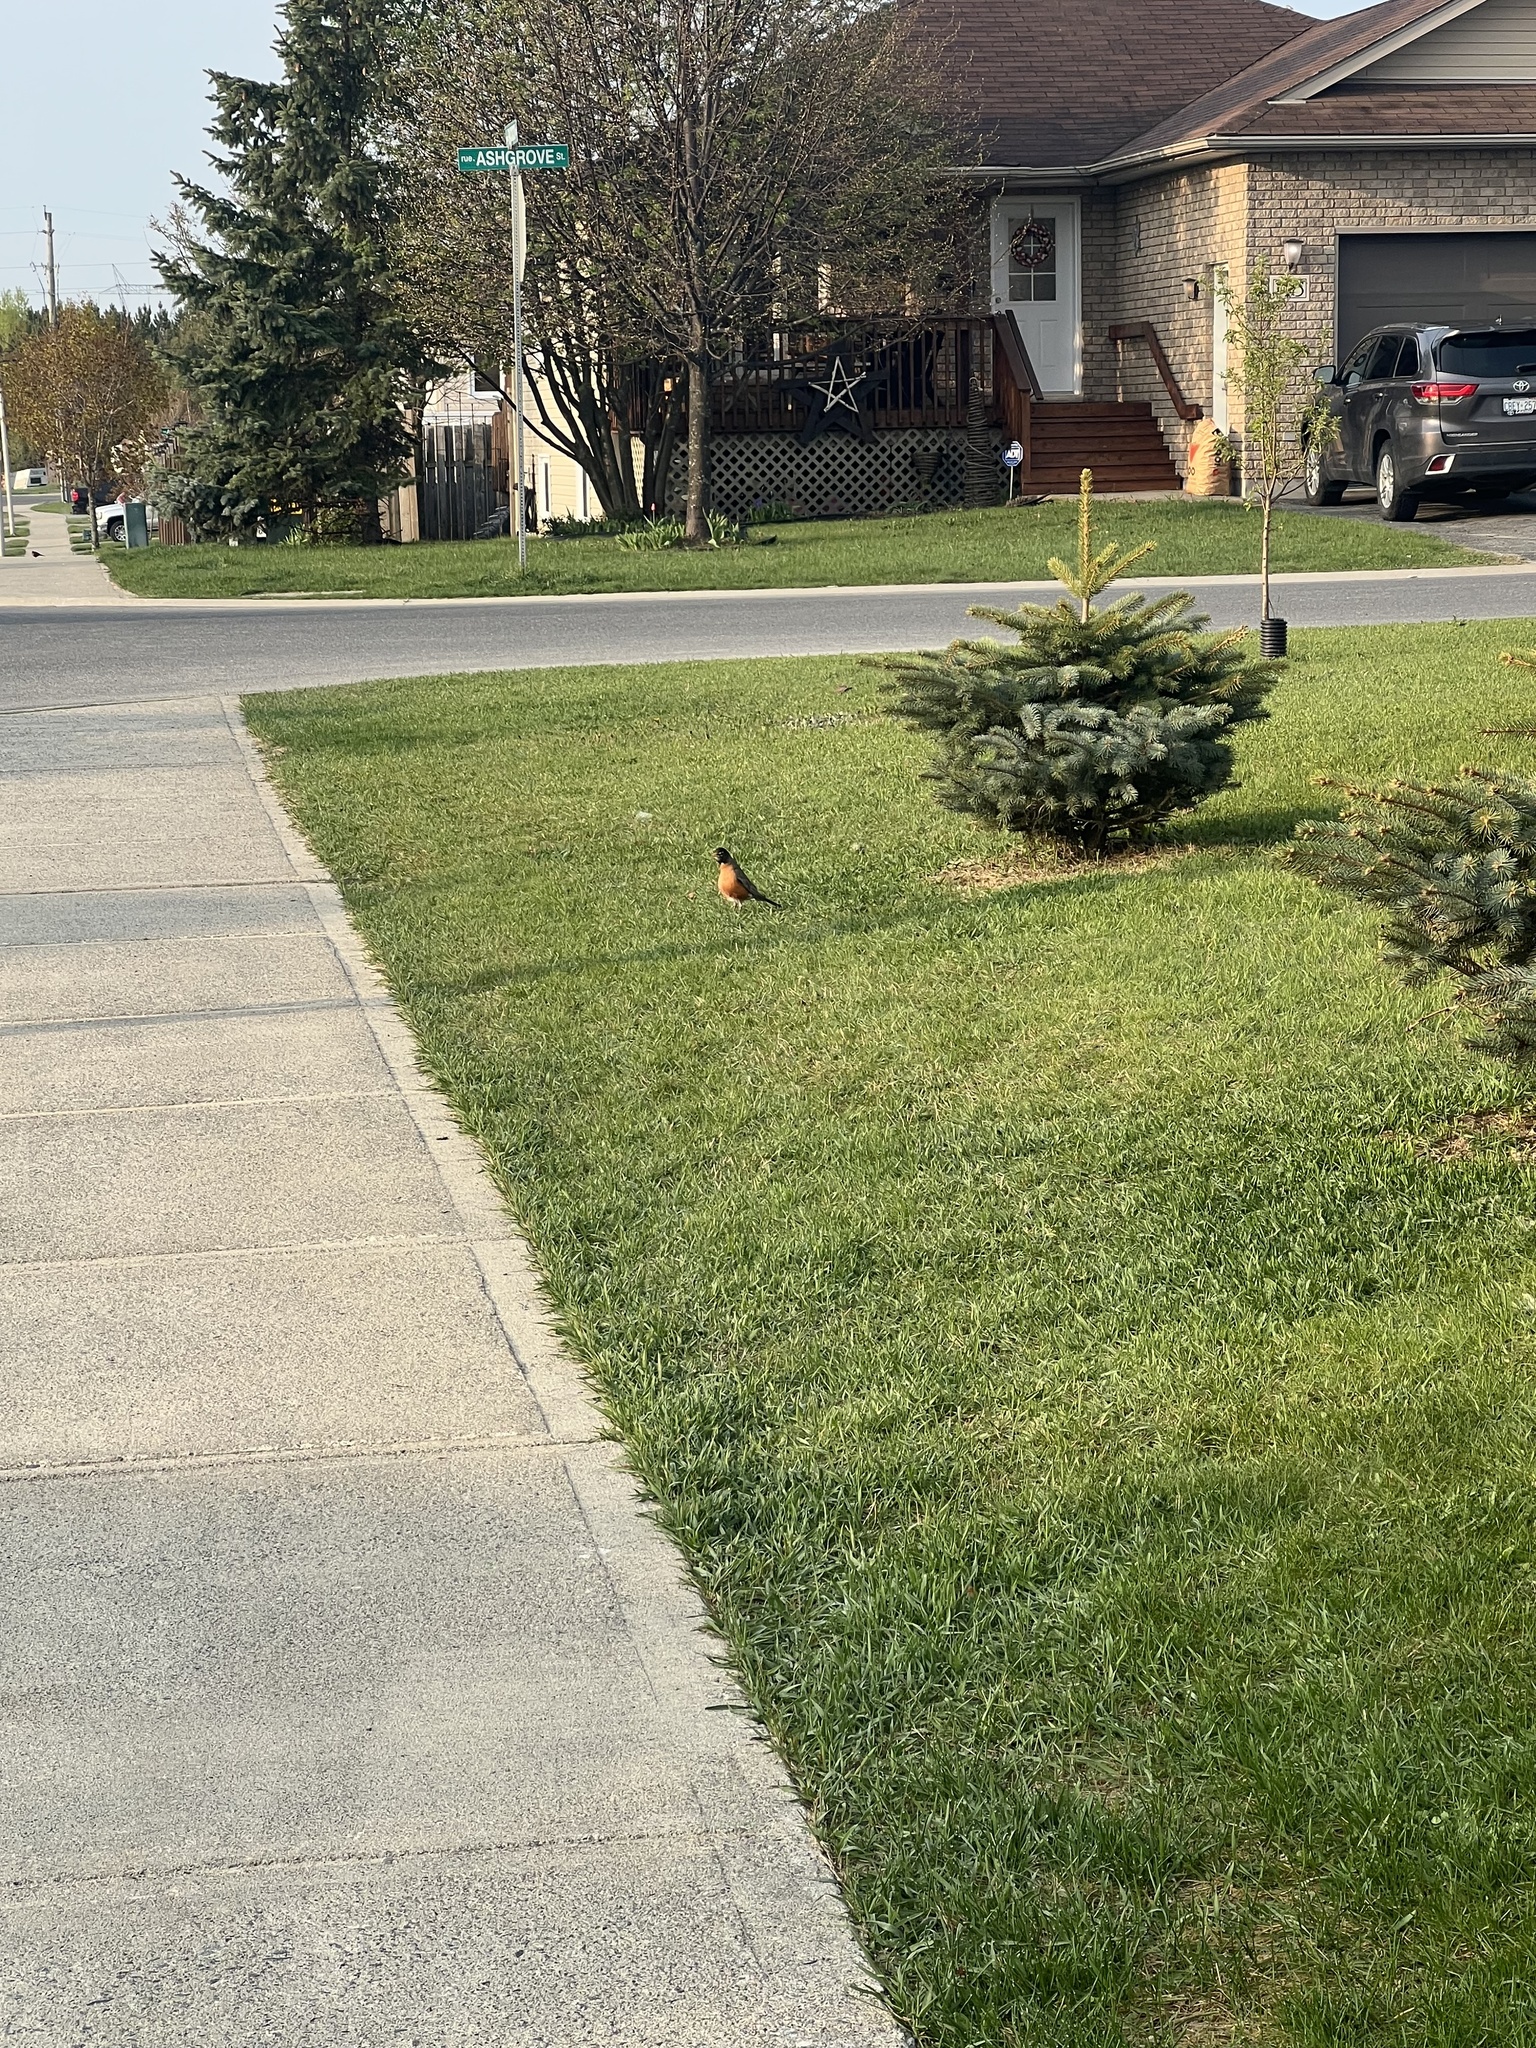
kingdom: Animalia
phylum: Chordata
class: Aves
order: Passeriformes
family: Turdidae
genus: Turdus
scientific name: Turdus migratorius
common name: American robin
